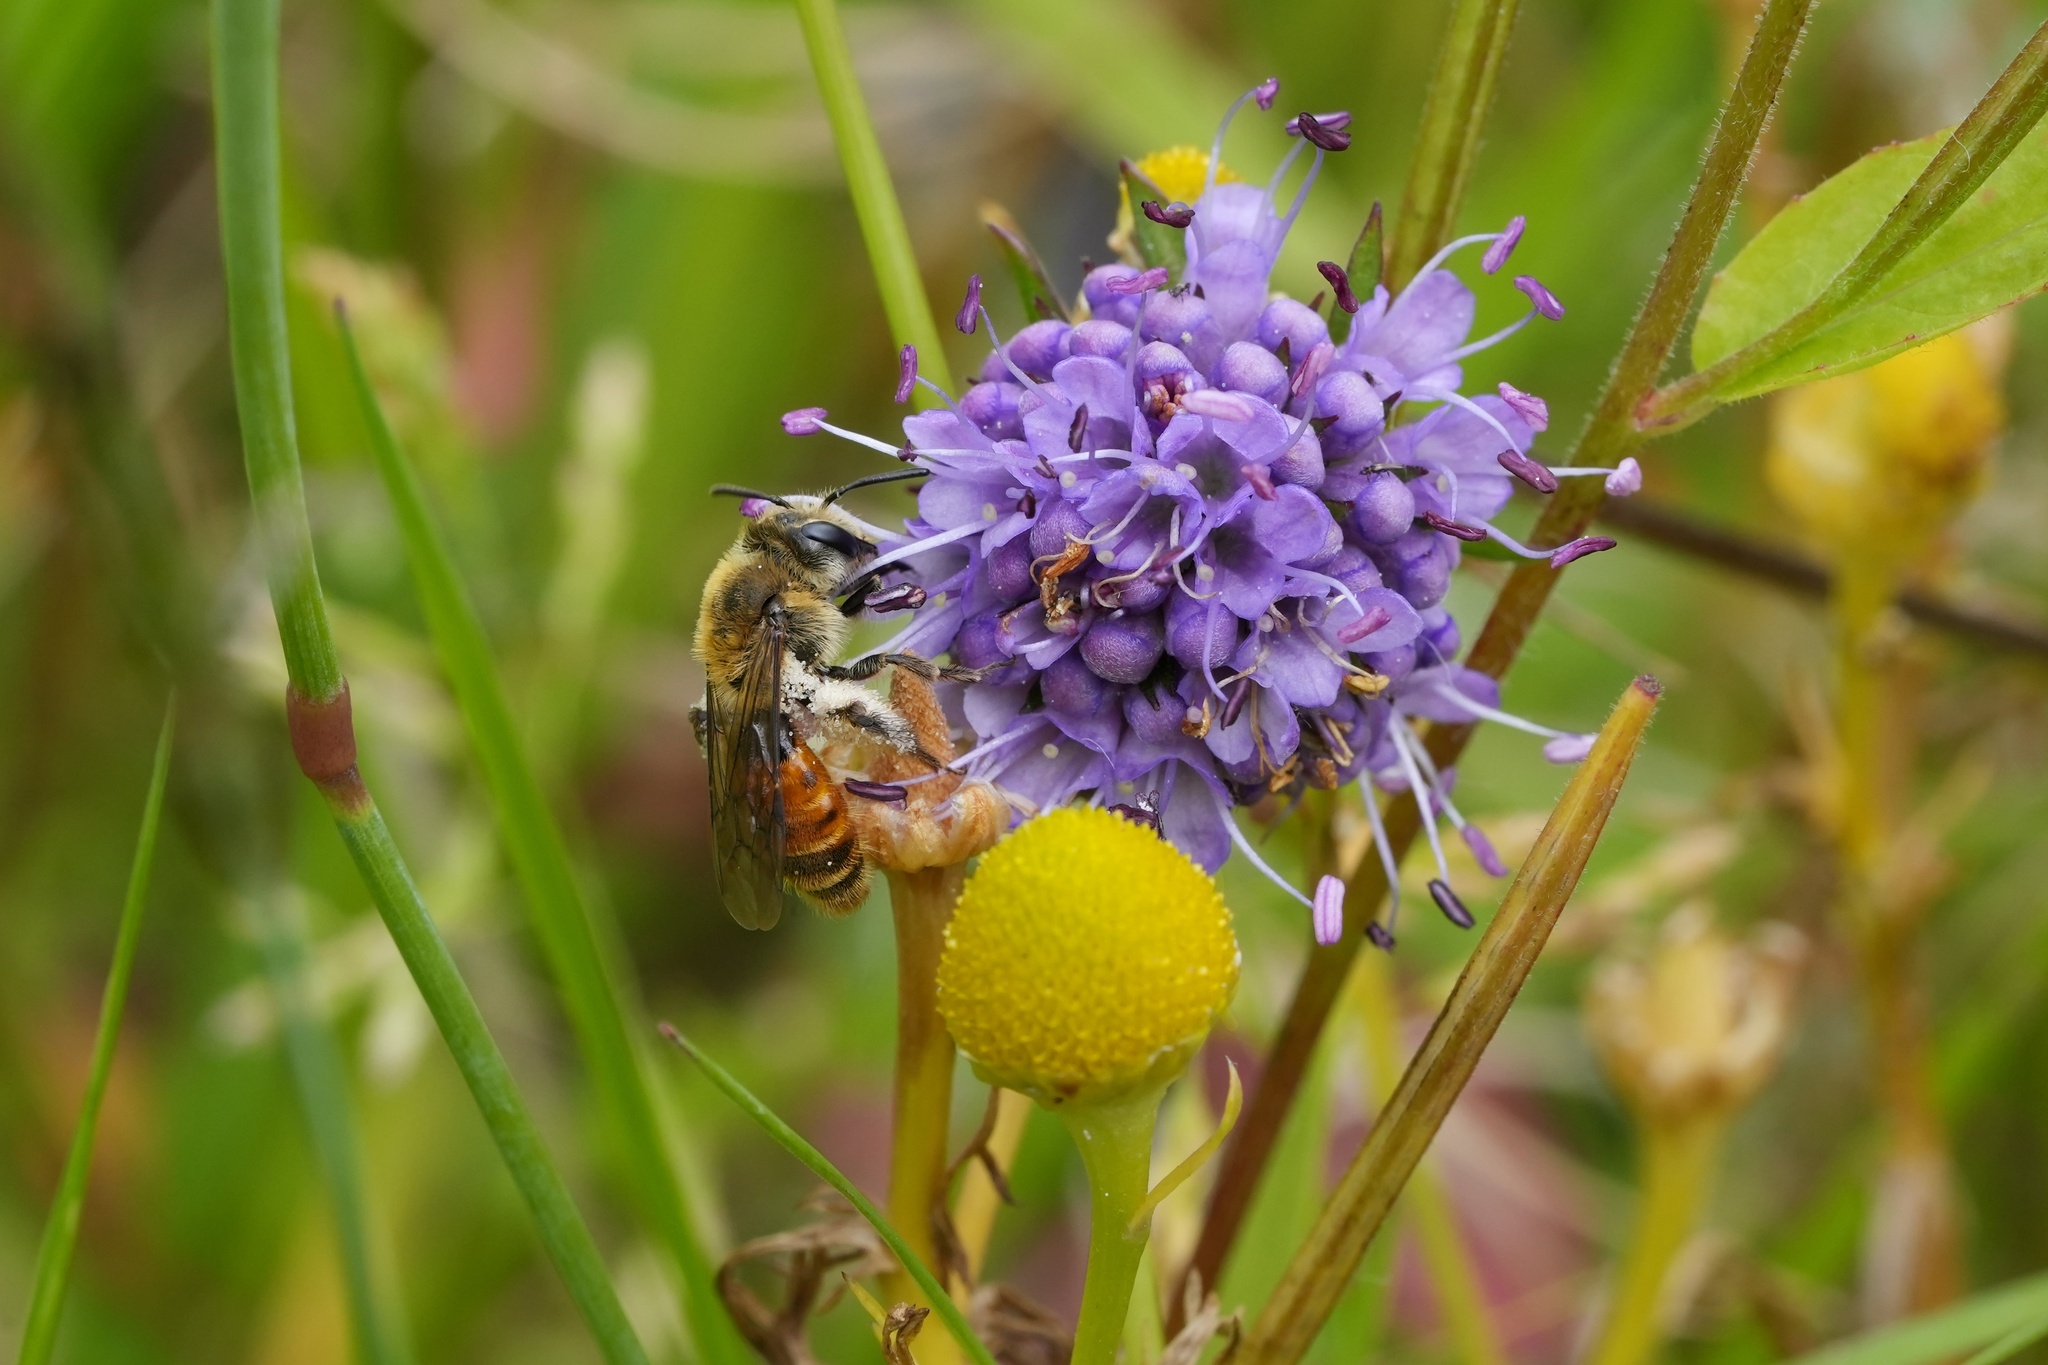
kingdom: Animalia
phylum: Arthropoda
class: Insecta
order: Hymenoptera
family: Andrenidae
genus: Andrena
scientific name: Andrena marginata
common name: Small scabious mining bee
